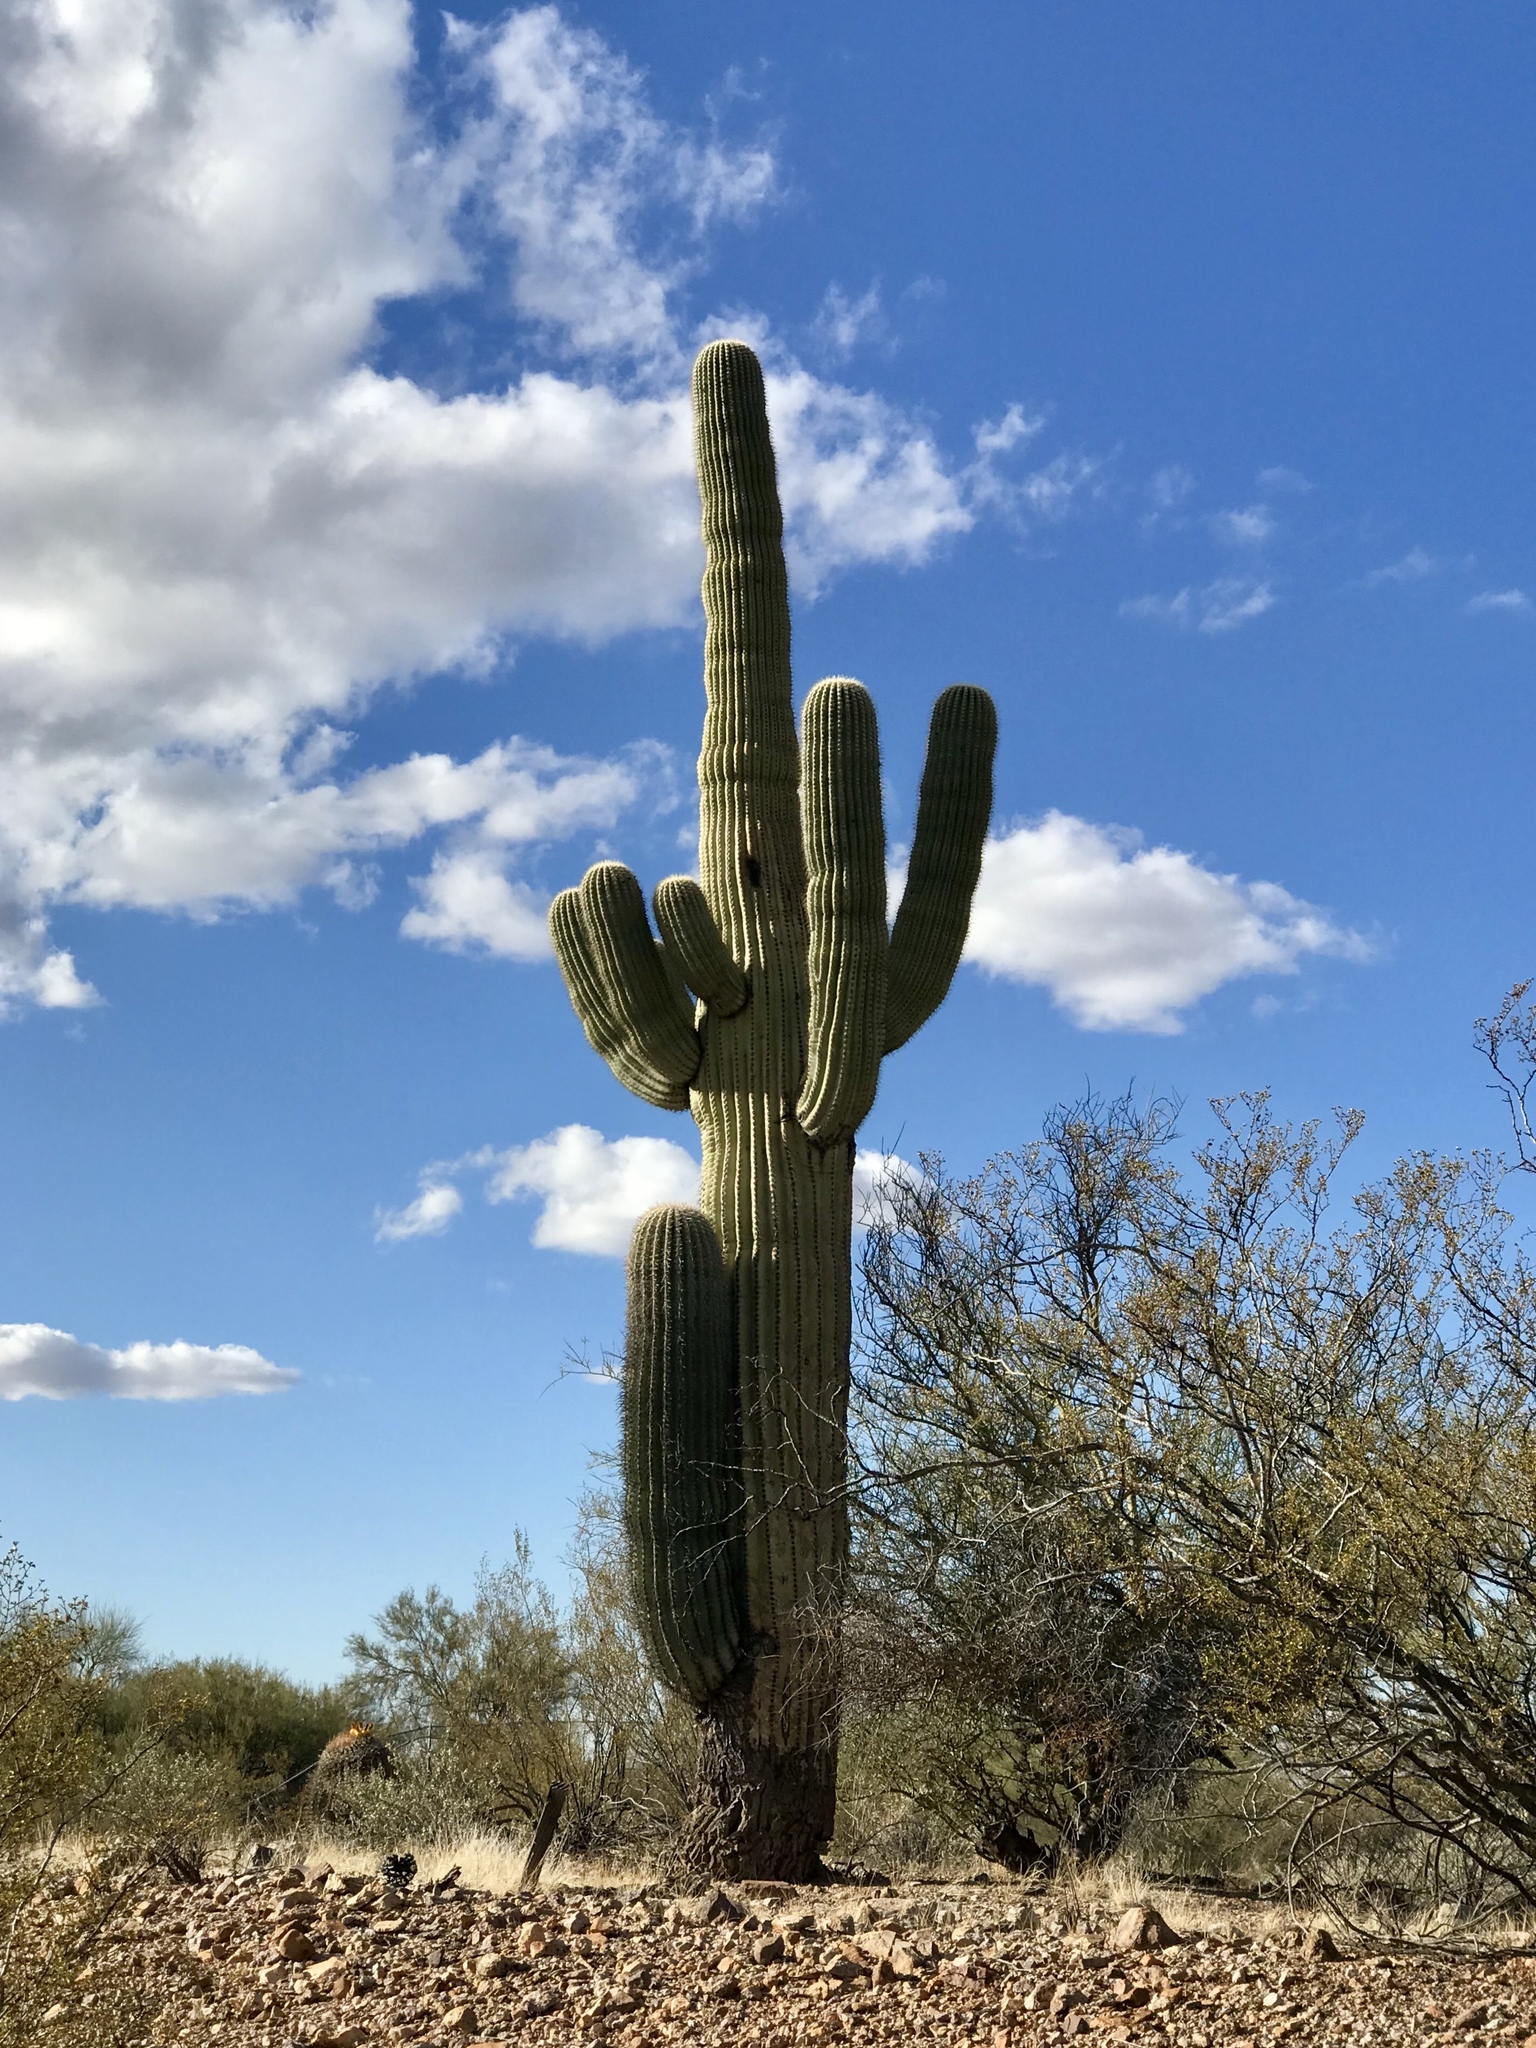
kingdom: Plantae
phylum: Tracheophyta
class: Magnoliopsida
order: Caryophyllales
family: Cactaceae
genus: Carnegiea
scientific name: Carnegiea gigantea
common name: Saguaro
